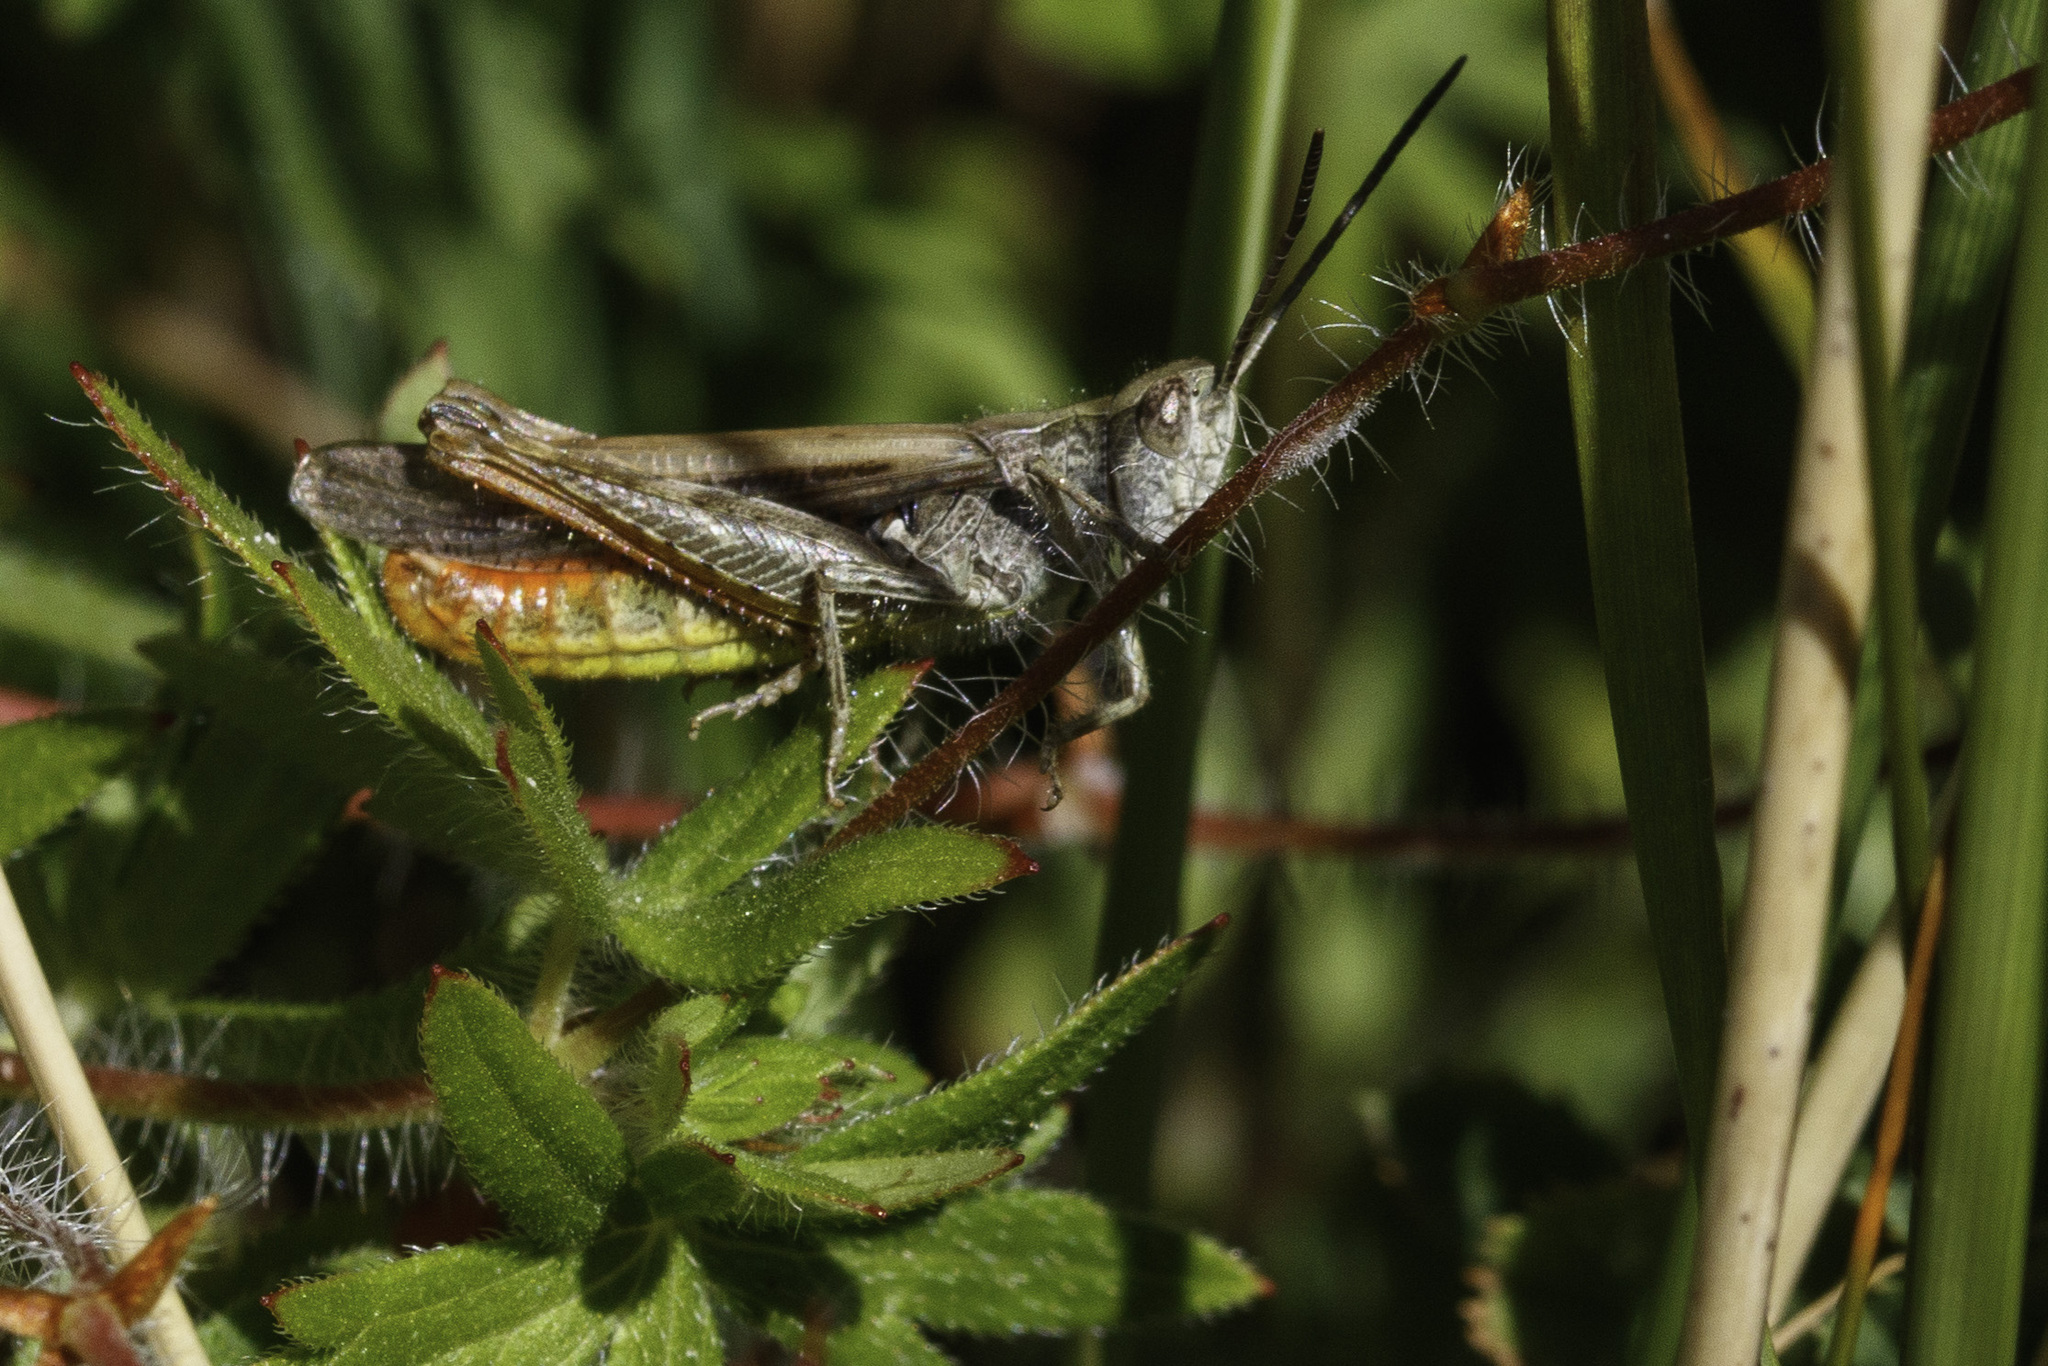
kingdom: Animalia
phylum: Arthropoda
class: Insecta
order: Orthoptera
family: Acrididae
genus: Chorthippus
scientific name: Chorthippus brunneus
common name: Field grasshopper
